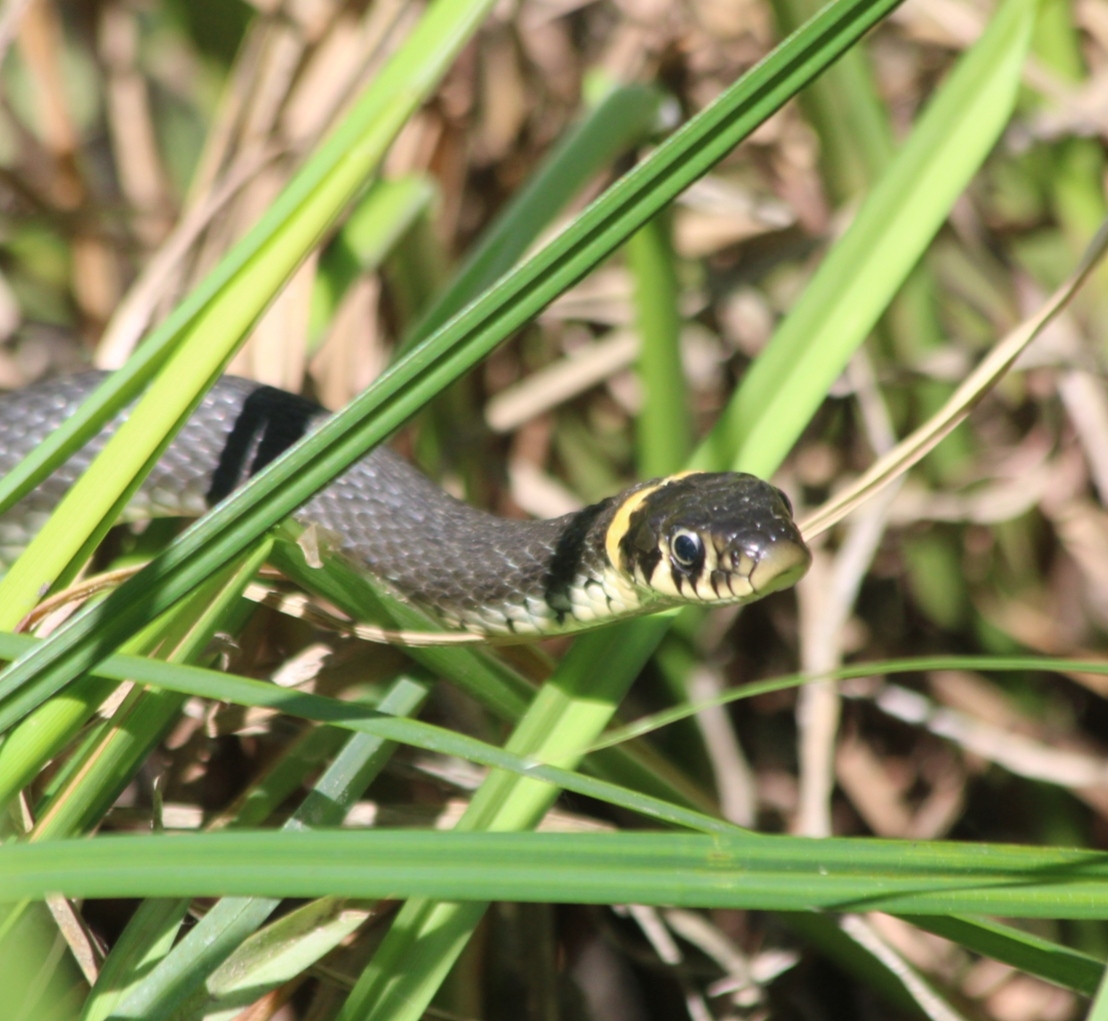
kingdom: Animalia
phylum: Chordata
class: Squamata
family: Colubridae
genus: Natrix
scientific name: Natrix natrix
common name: Grass snake
